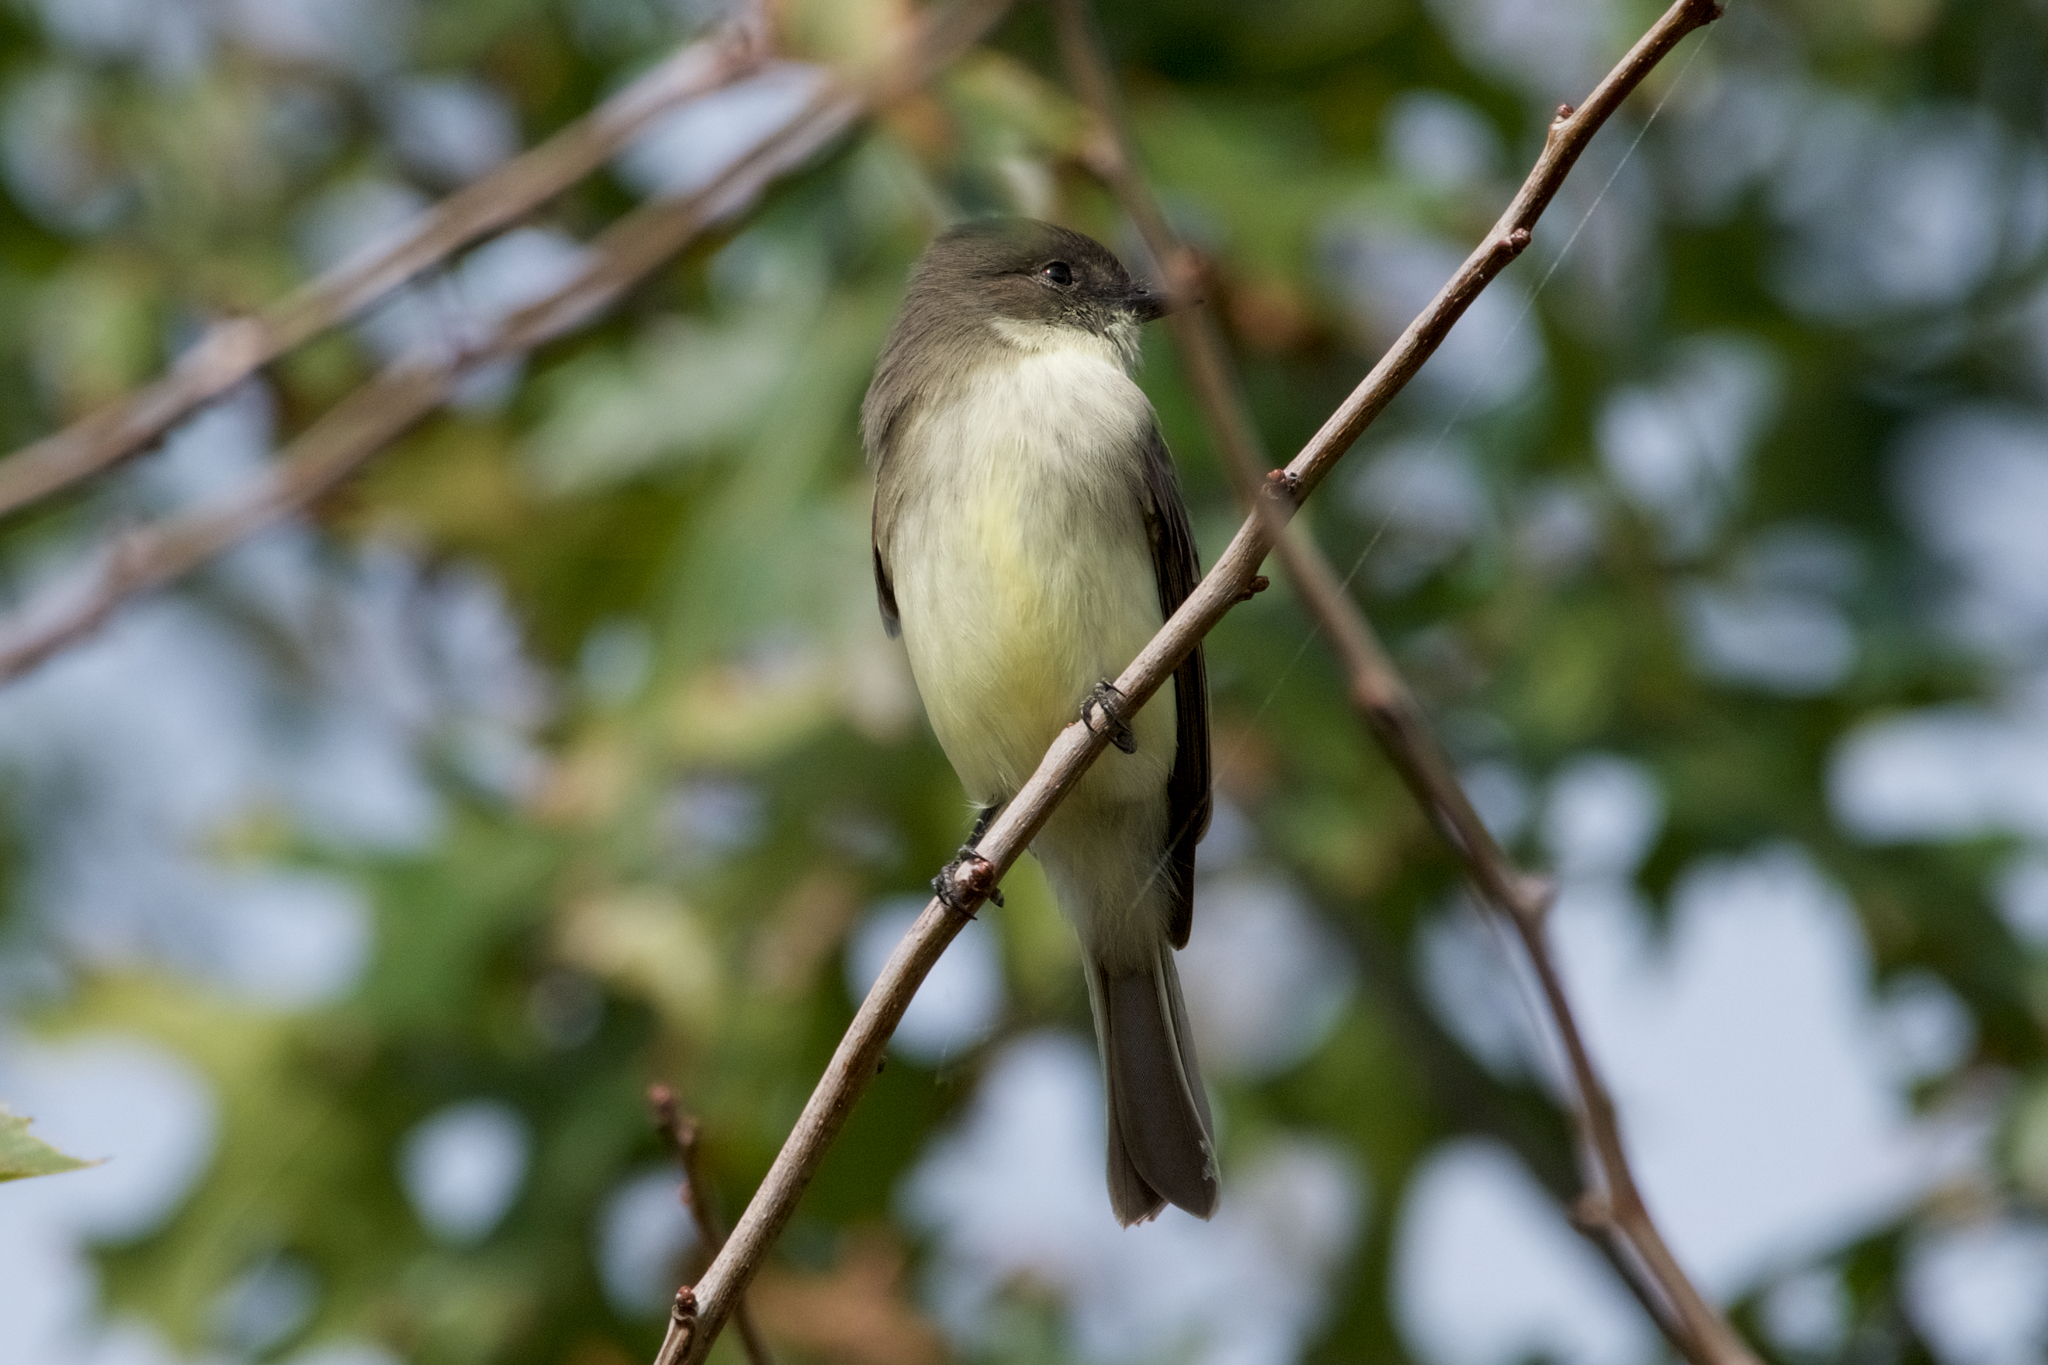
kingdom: Animalia
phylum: Chordata
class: Aves
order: Passeriformes
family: Tyrannidae
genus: Sayornis
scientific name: Sayornis phoebe
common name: Eastern phoebe
